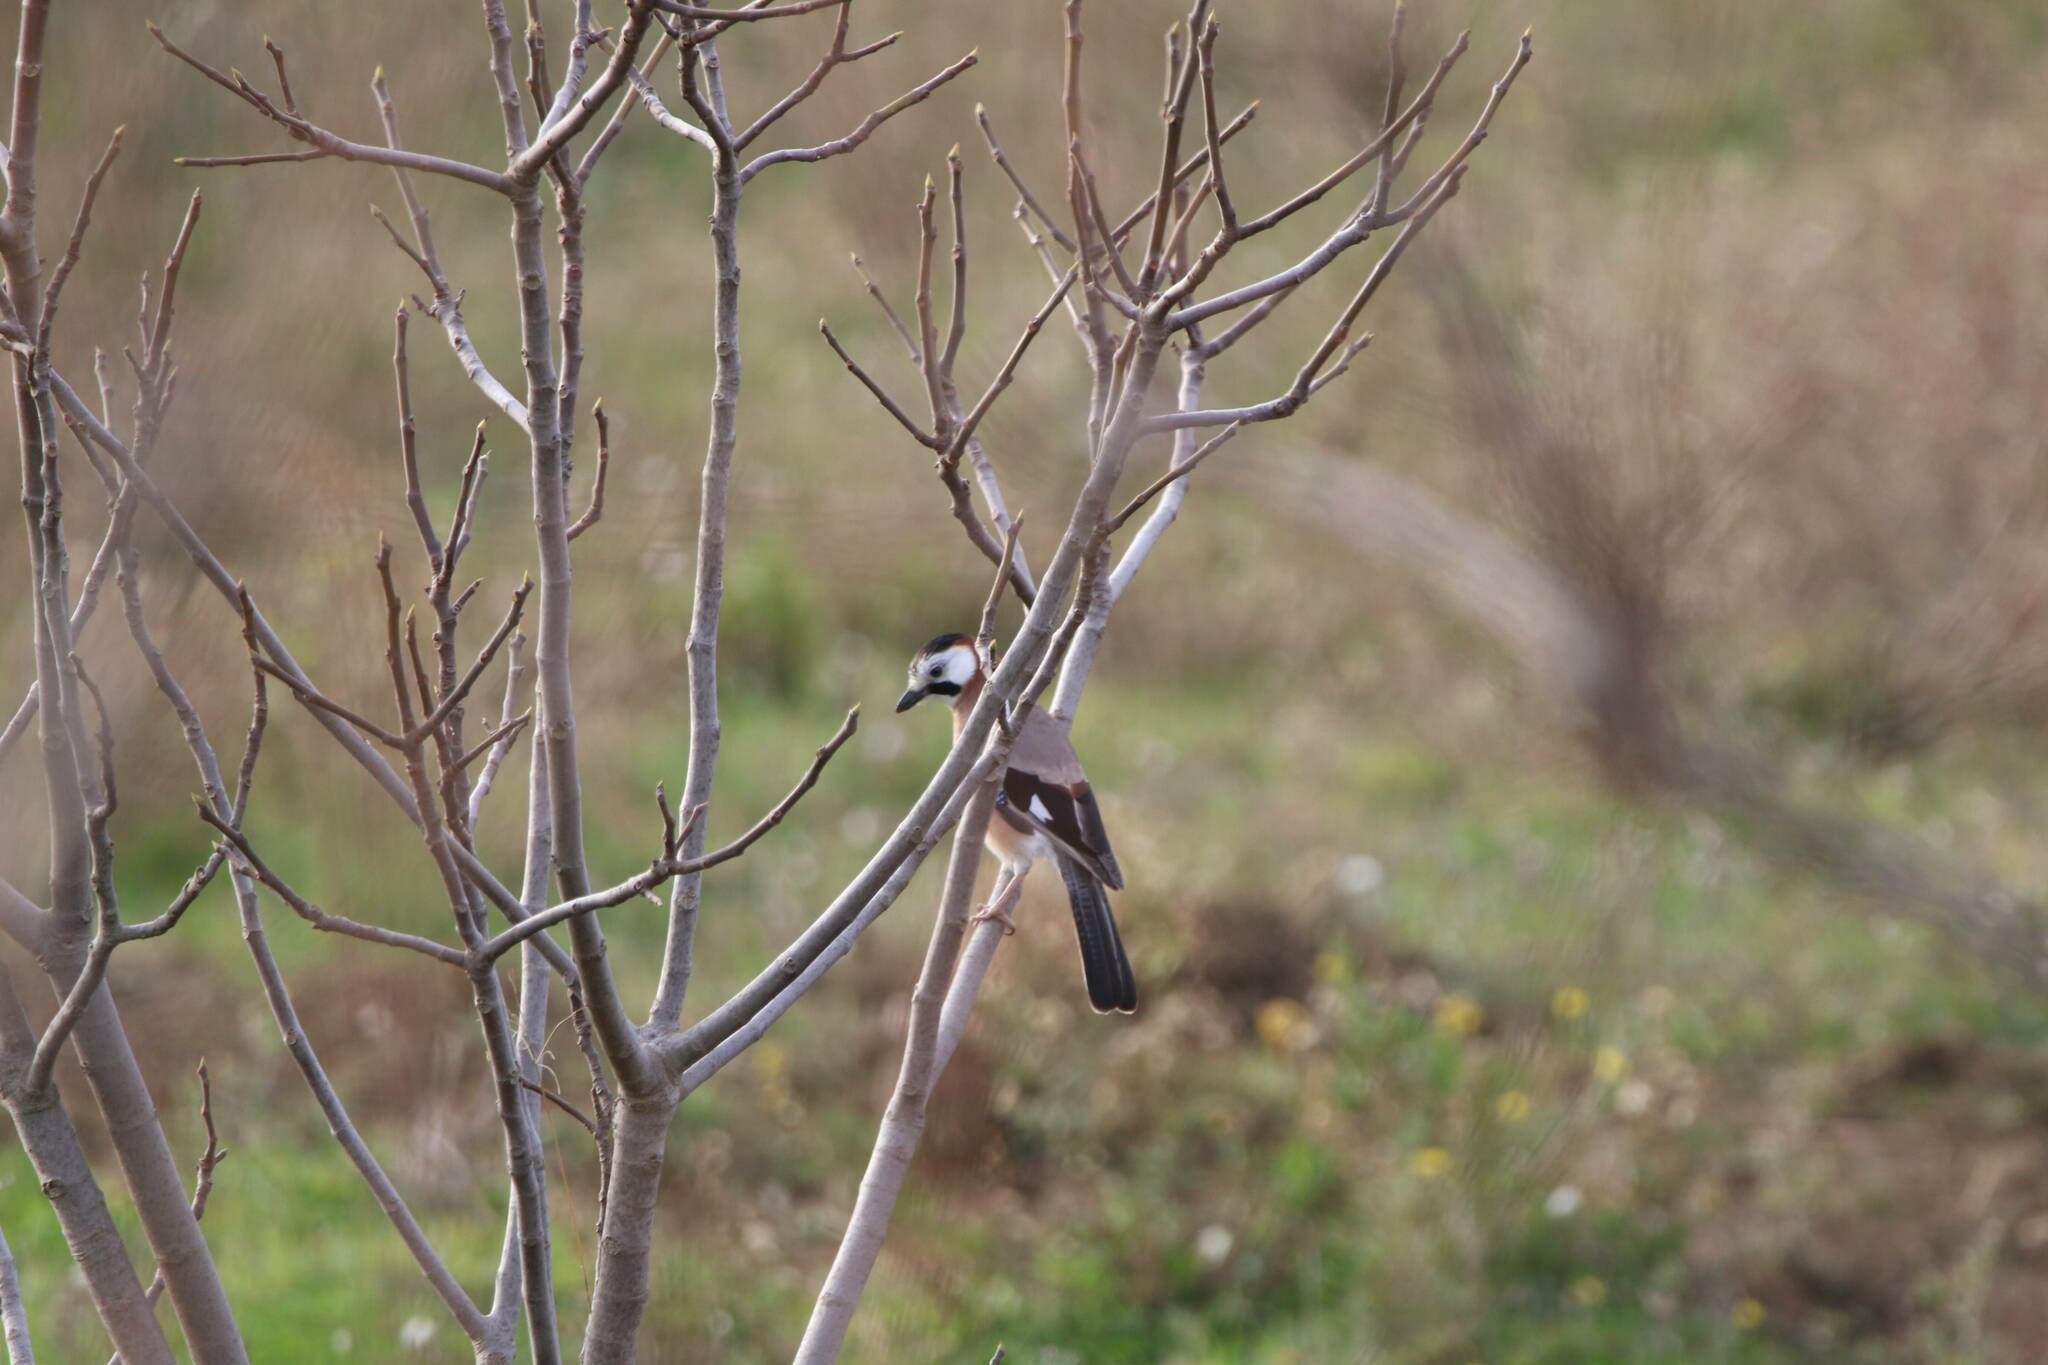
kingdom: Animalia
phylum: Chordata
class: Aves
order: Passeriformes
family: Corvidae
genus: Garrulus
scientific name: Garrulus glandarius
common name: Eurasian jay
